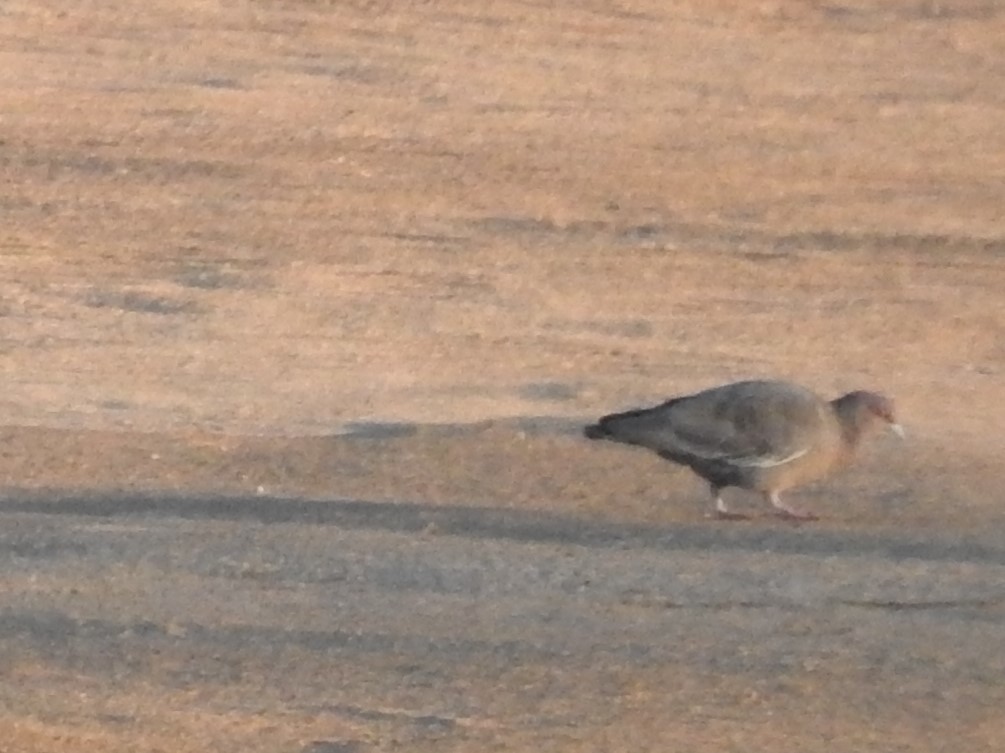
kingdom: Animalia
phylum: Chordata
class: Aves
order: Columbiformes
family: Columbidae
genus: Patagioenas
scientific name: Patagioenas picazuro
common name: Picazuro pigeon
